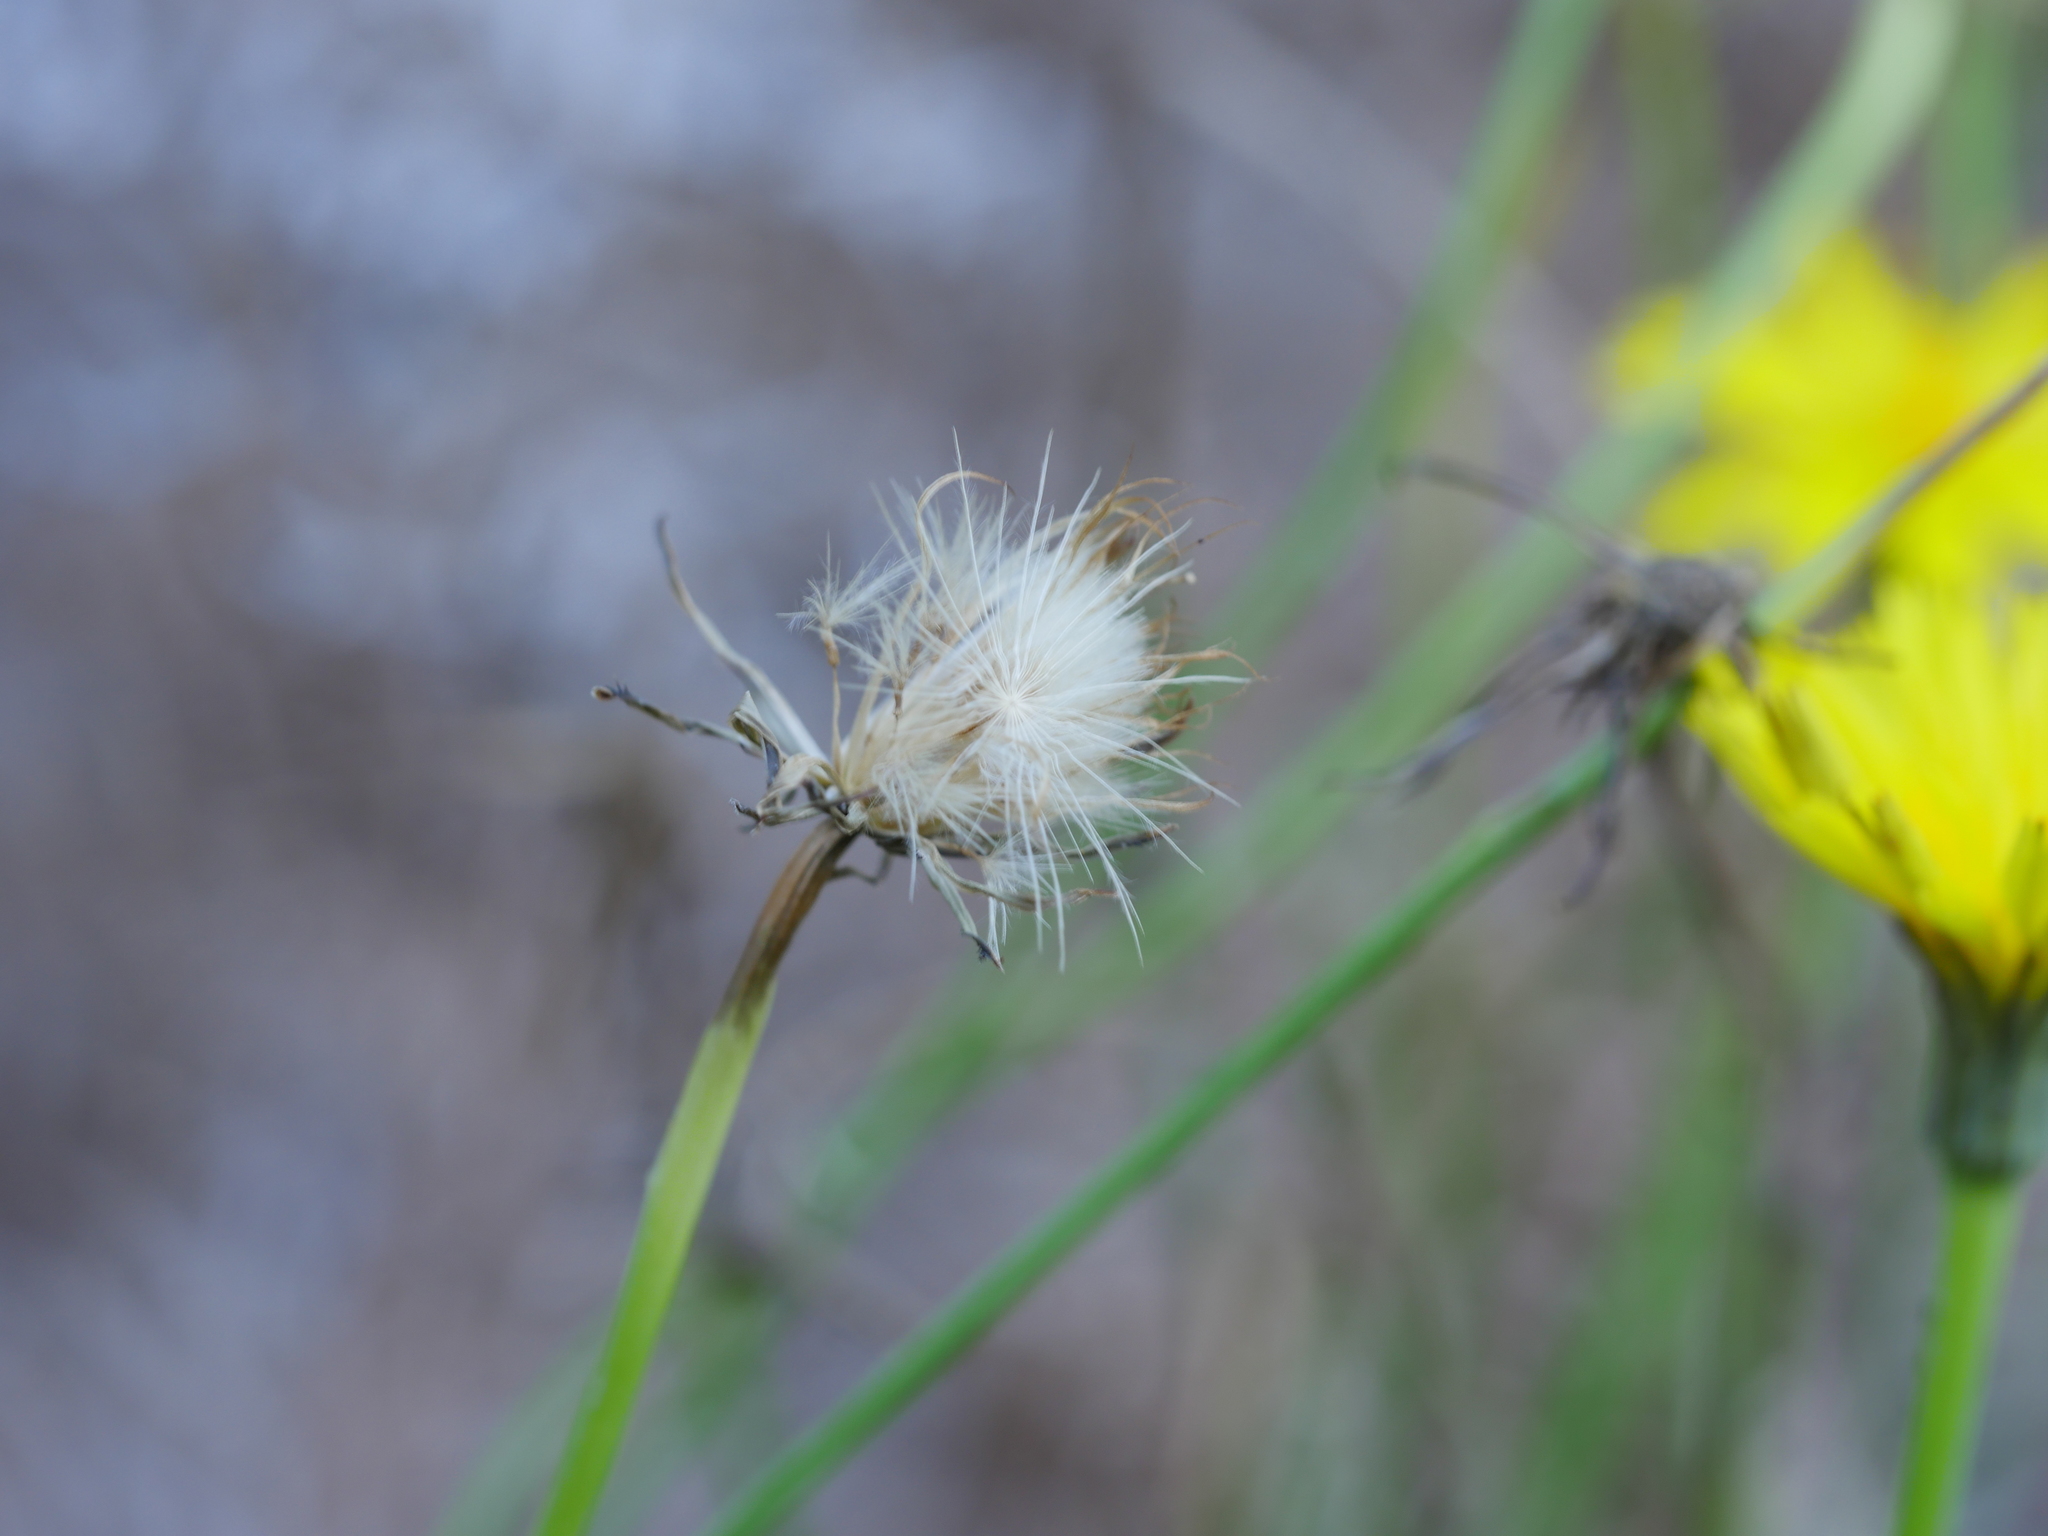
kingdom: Plantae
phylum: Tracheophyta
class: Magnoliopsida
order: Asterales
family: Asteraceae
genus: Hypochaeris
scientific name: Hypochaeris radicata
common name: Flatweed
